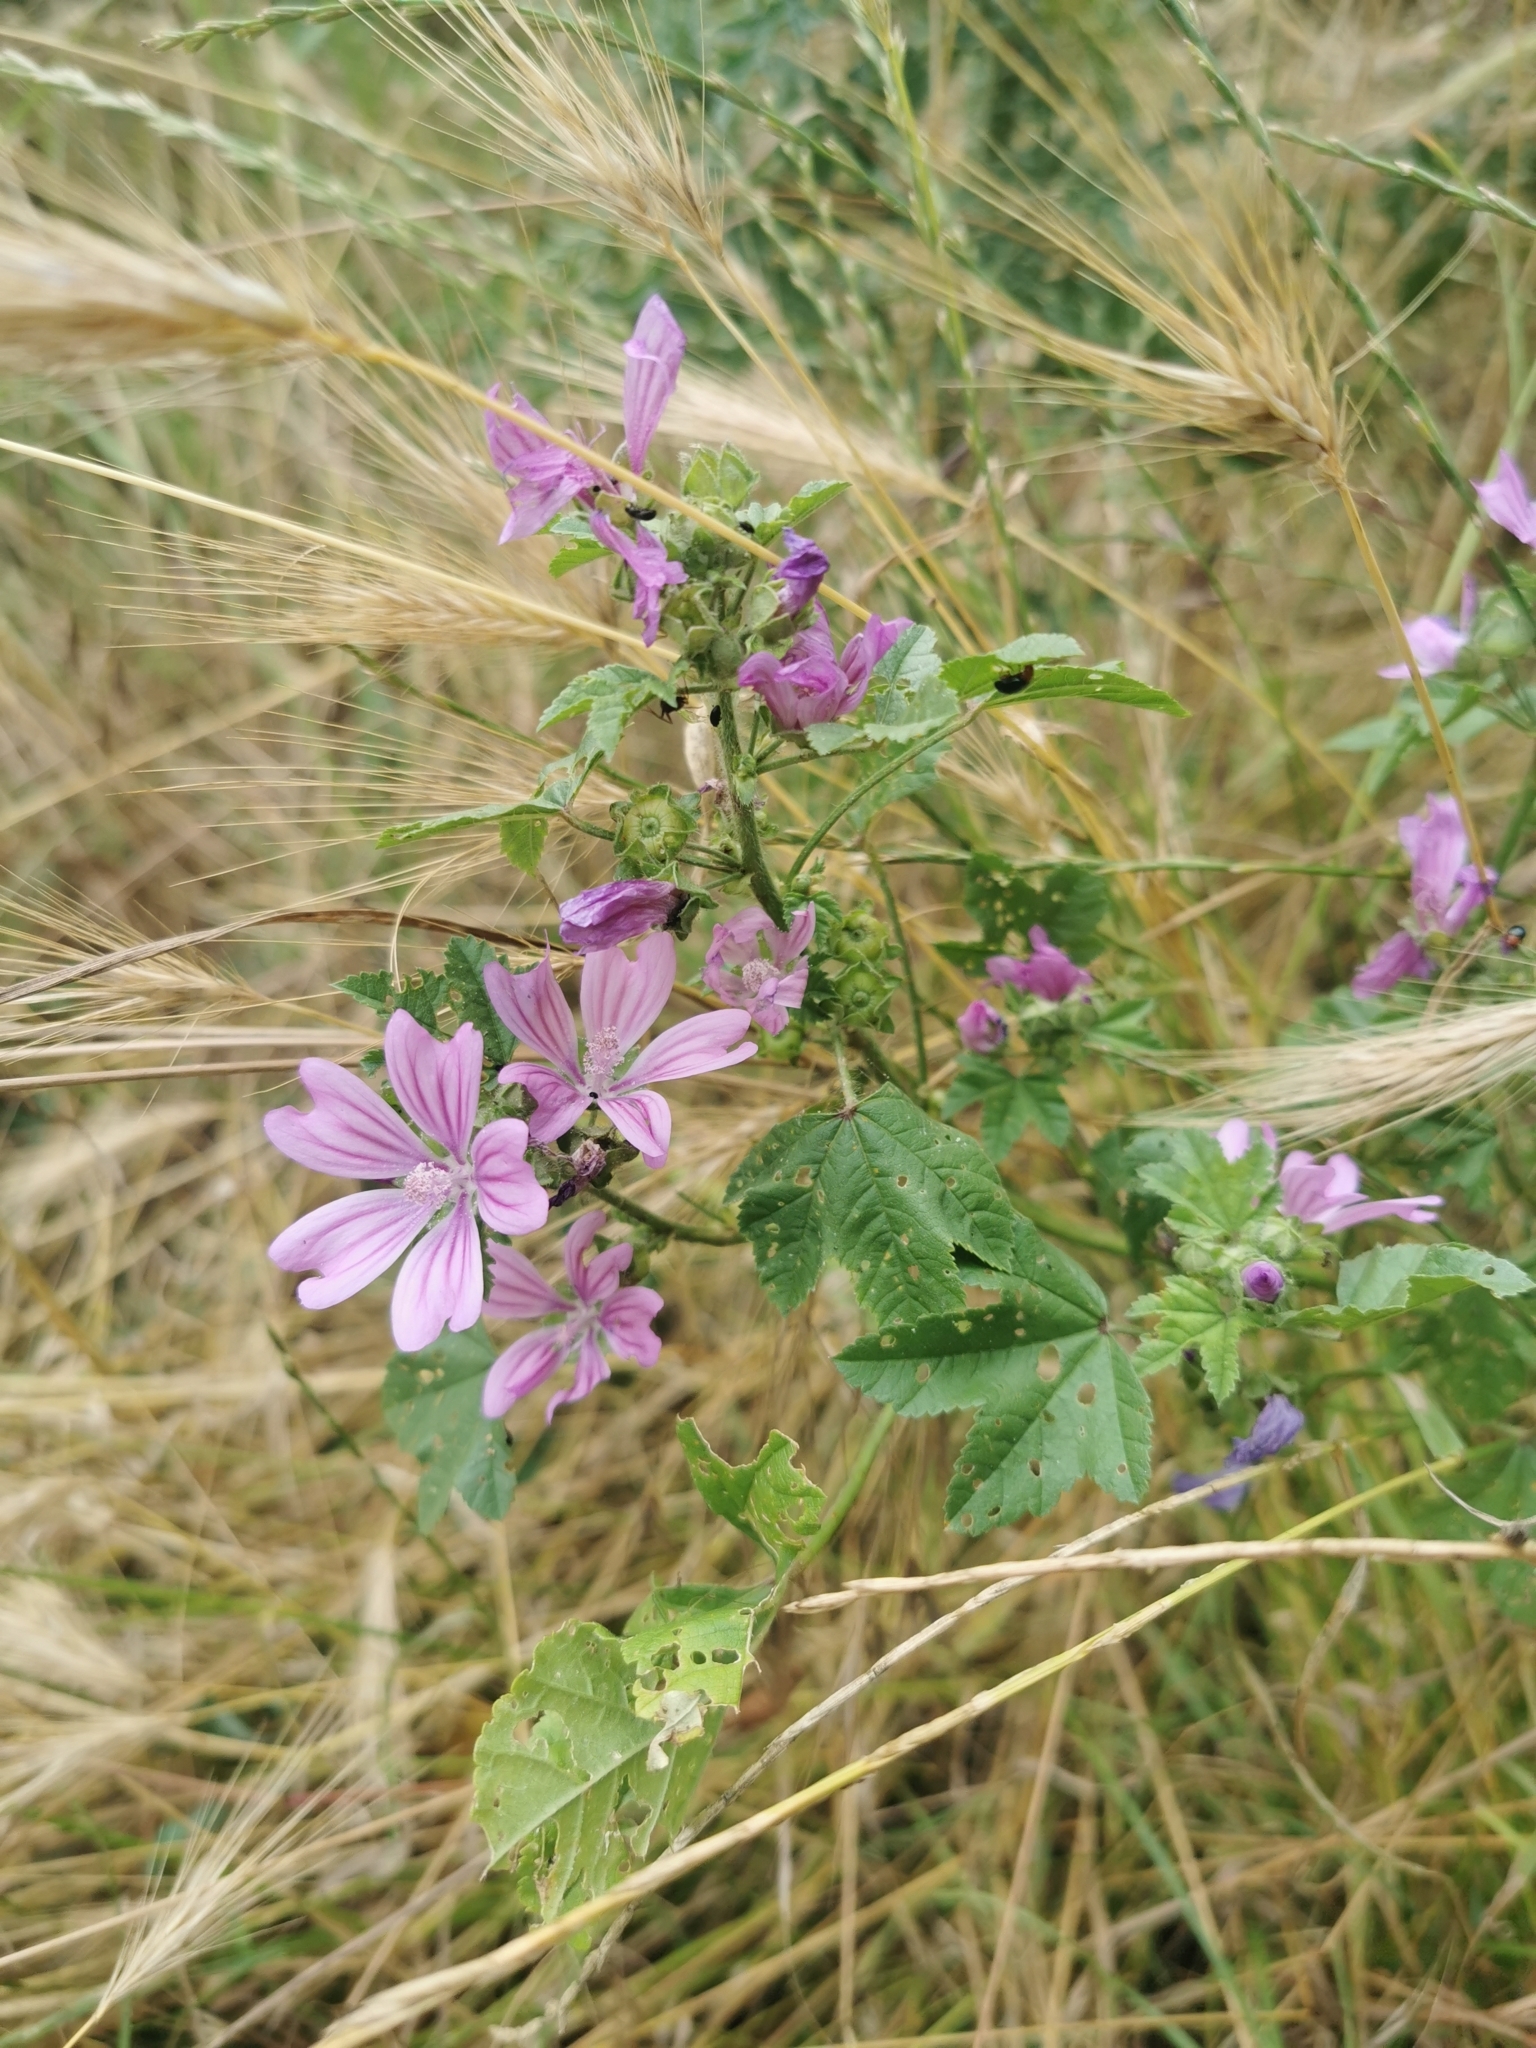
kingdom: Plantae
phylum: Tracheophyta
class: Magnoliopsida
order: Malvales
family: Malvaceae
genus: Malva
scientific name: Malva sylvestris
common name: Common mallow
